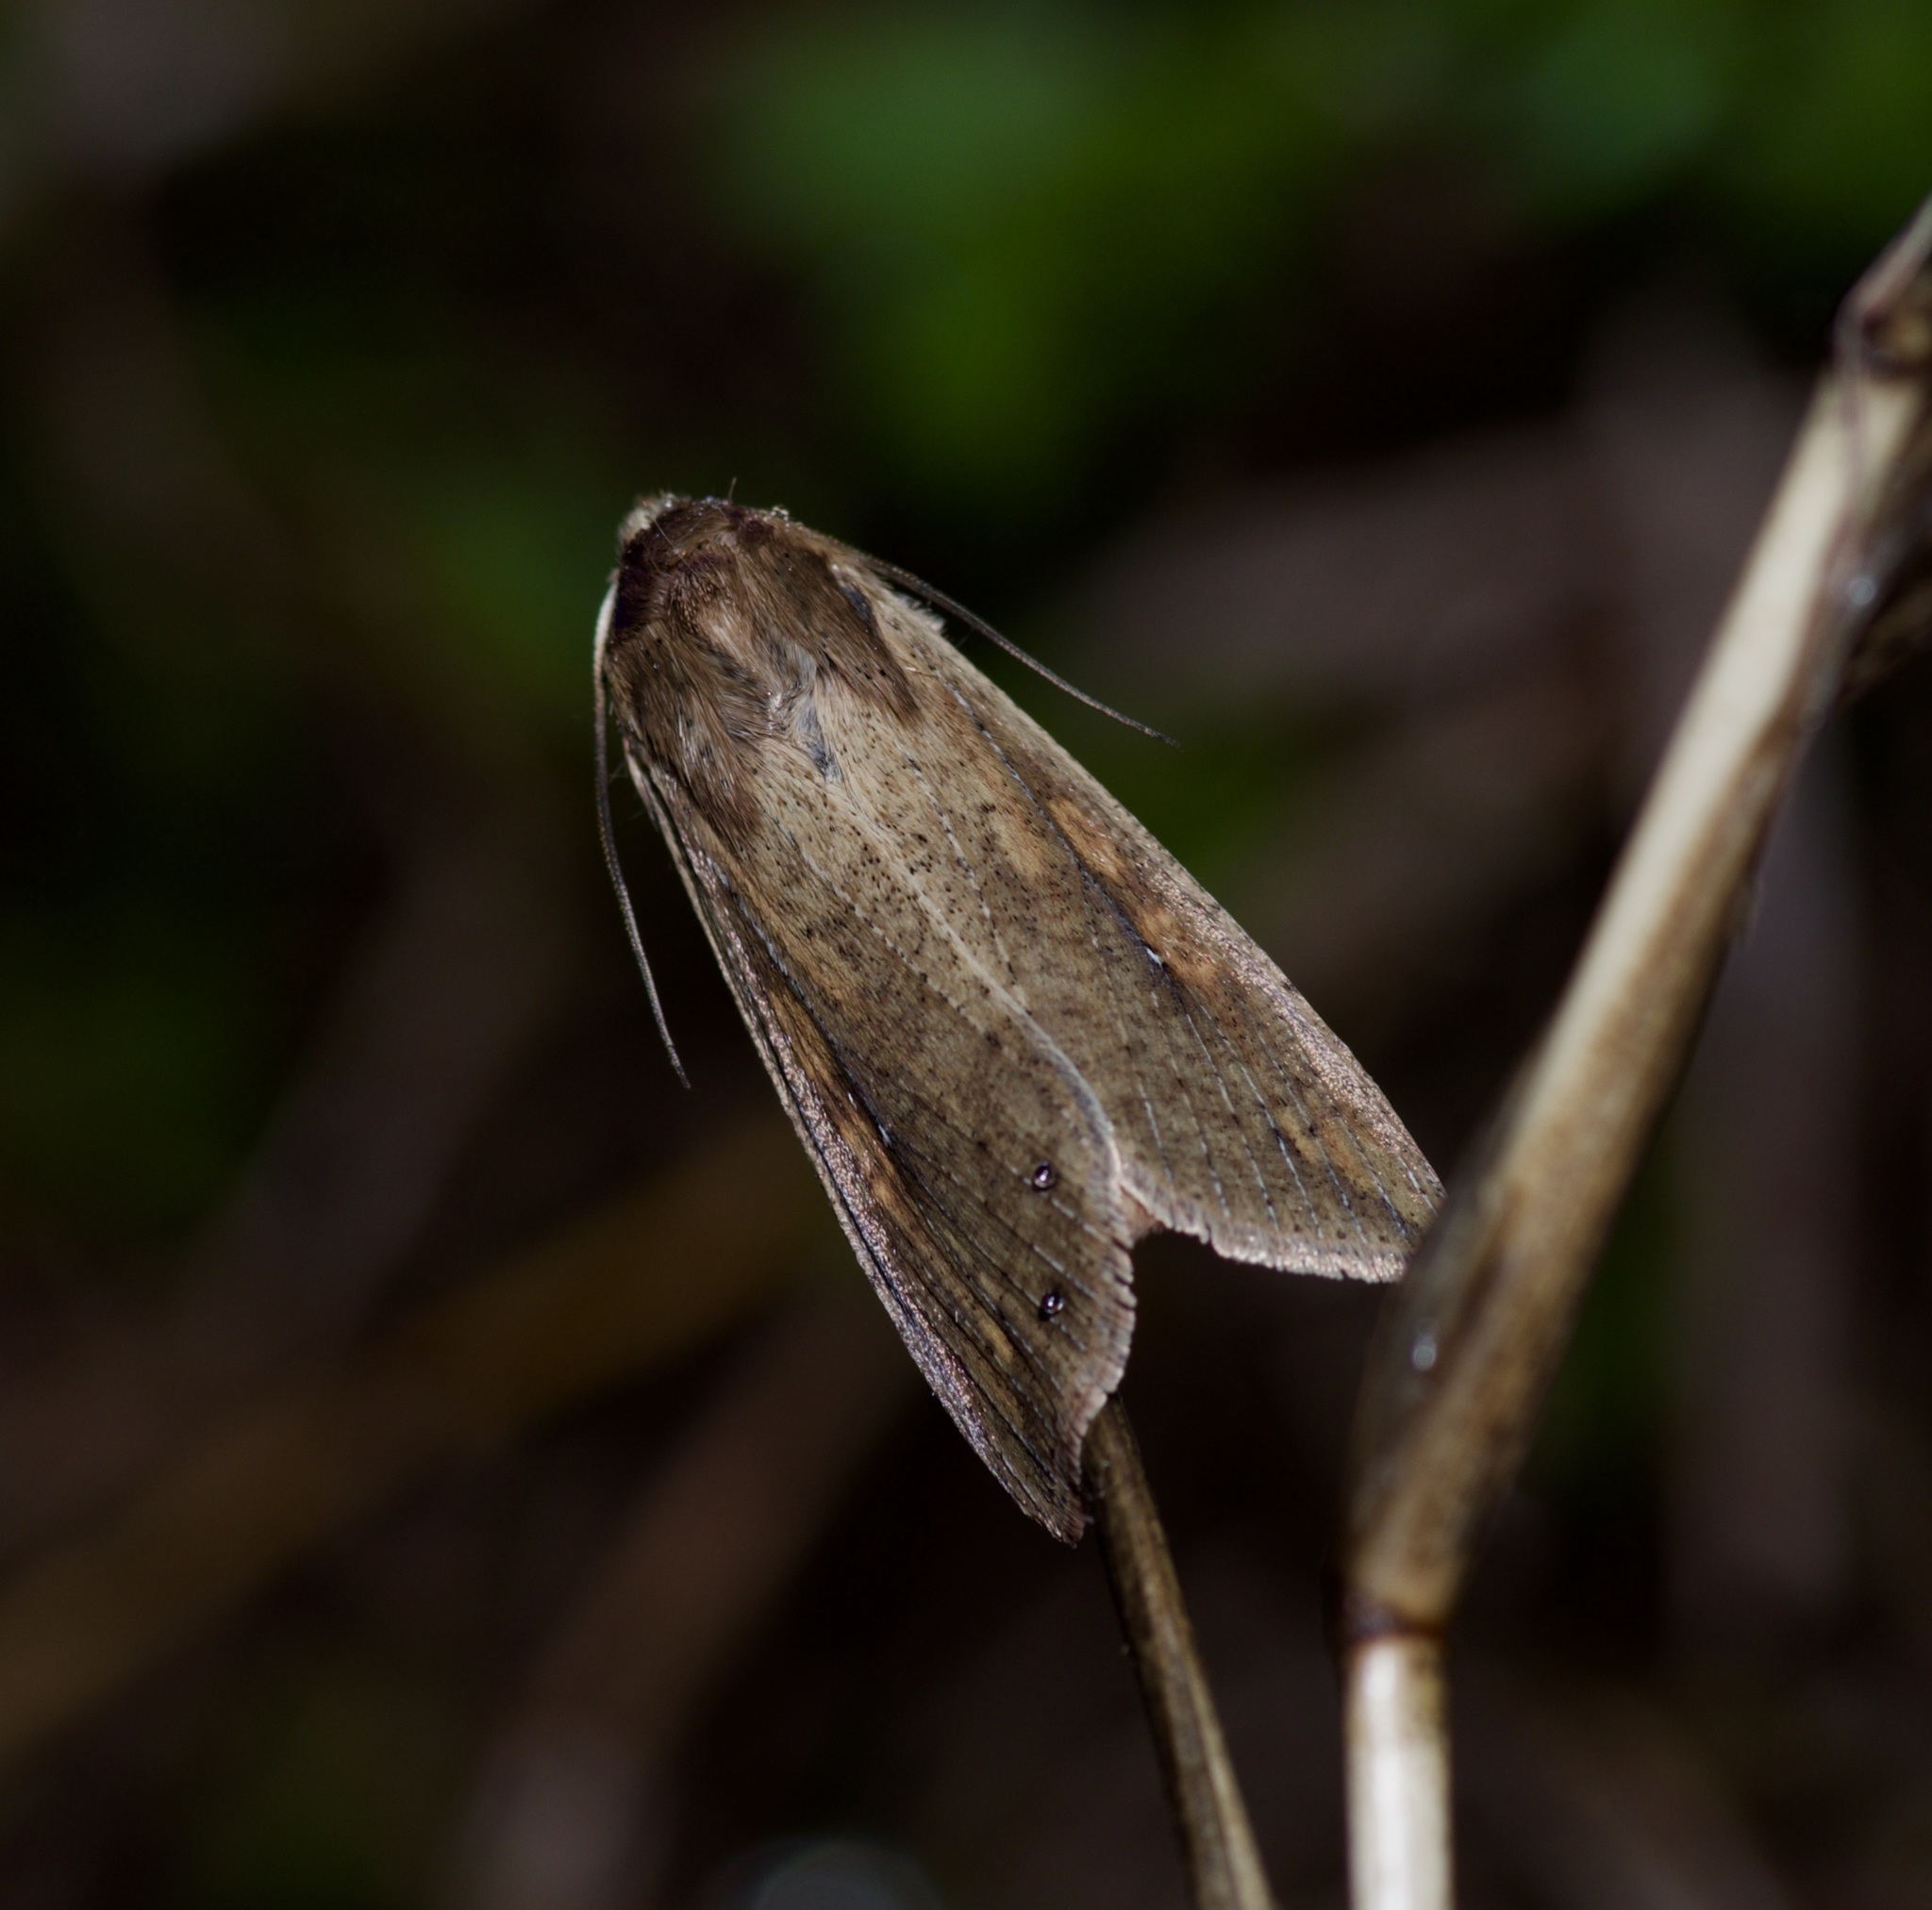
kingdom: Animalia
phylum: Arthropoda
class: Insecta
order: Lepidoptera
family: Noctuidae
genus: Mythimna
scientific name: Mythimna unipuncta
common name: White-speck
